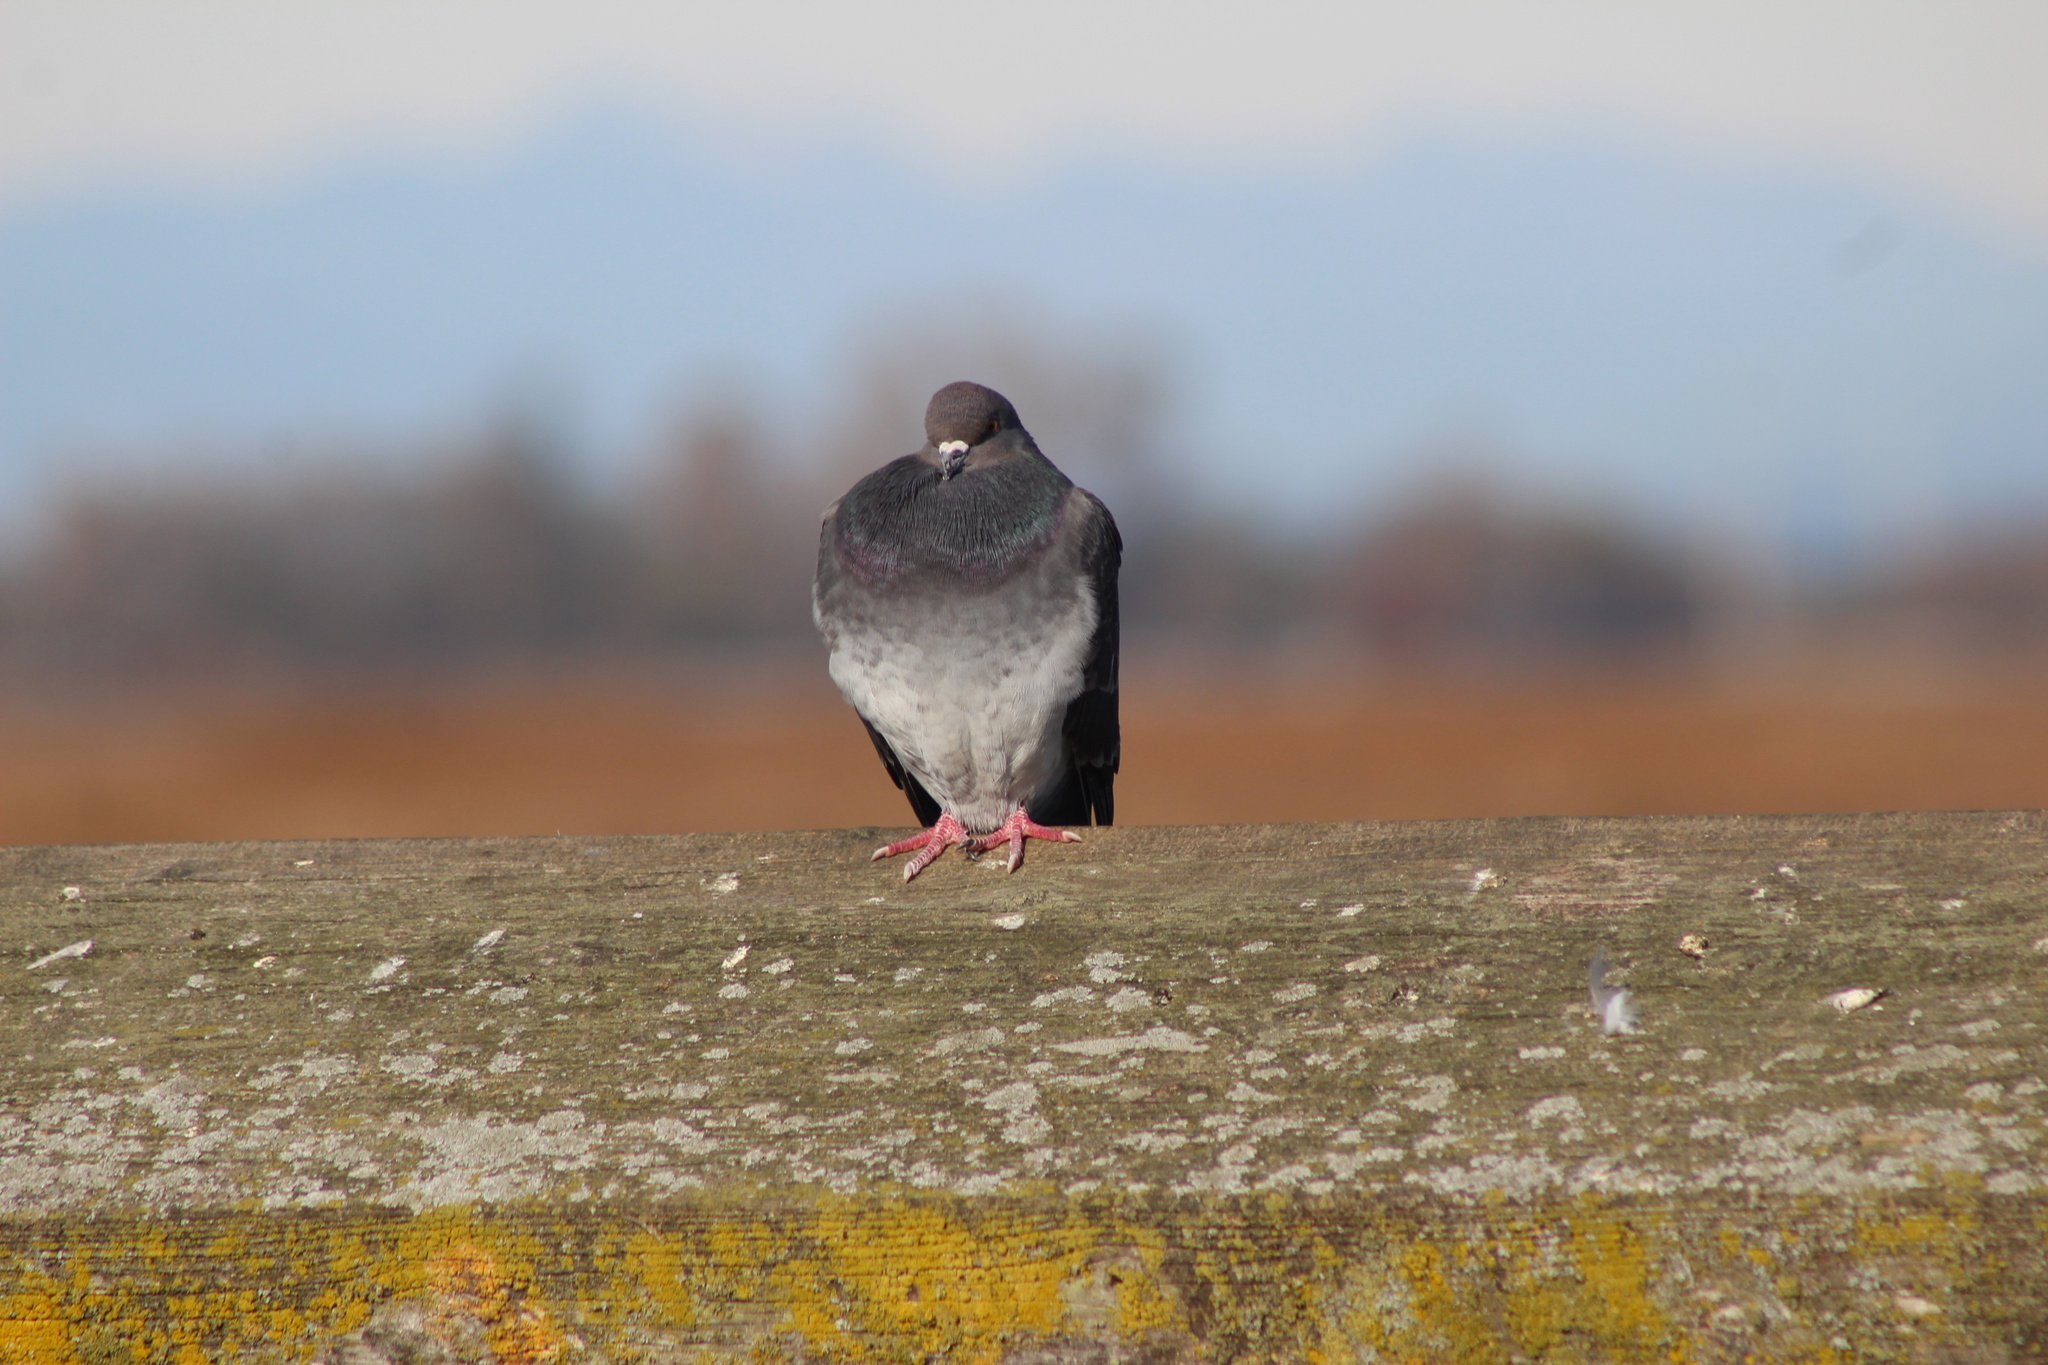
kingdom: Animalia
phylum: Chordata
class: Aves
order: Columbiformes
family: Columbidae
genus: Columba
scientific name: Columba livia
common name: Rock pigeon
